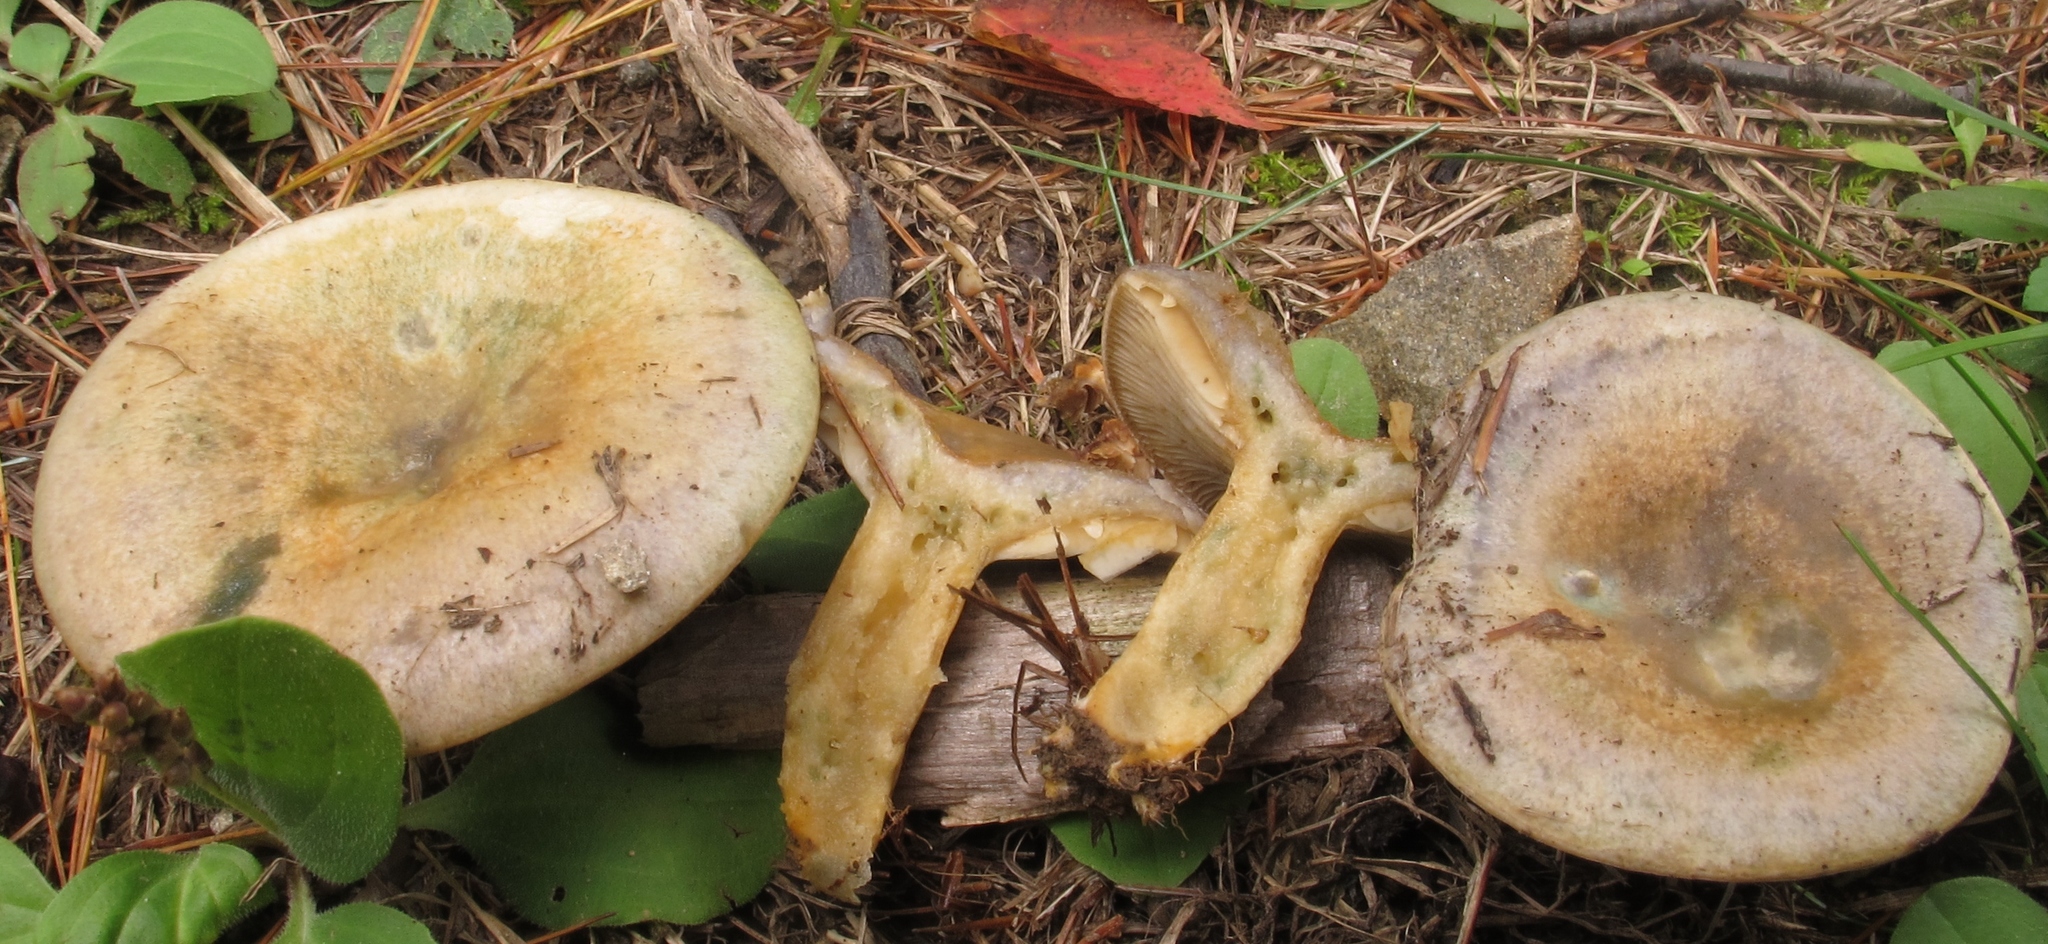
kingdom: Fungi
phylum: Basidiomycota
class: Agaricomycetes
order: Russulales
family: Russulaceae
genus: Lactarius
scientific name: Lactarius chelidonium
